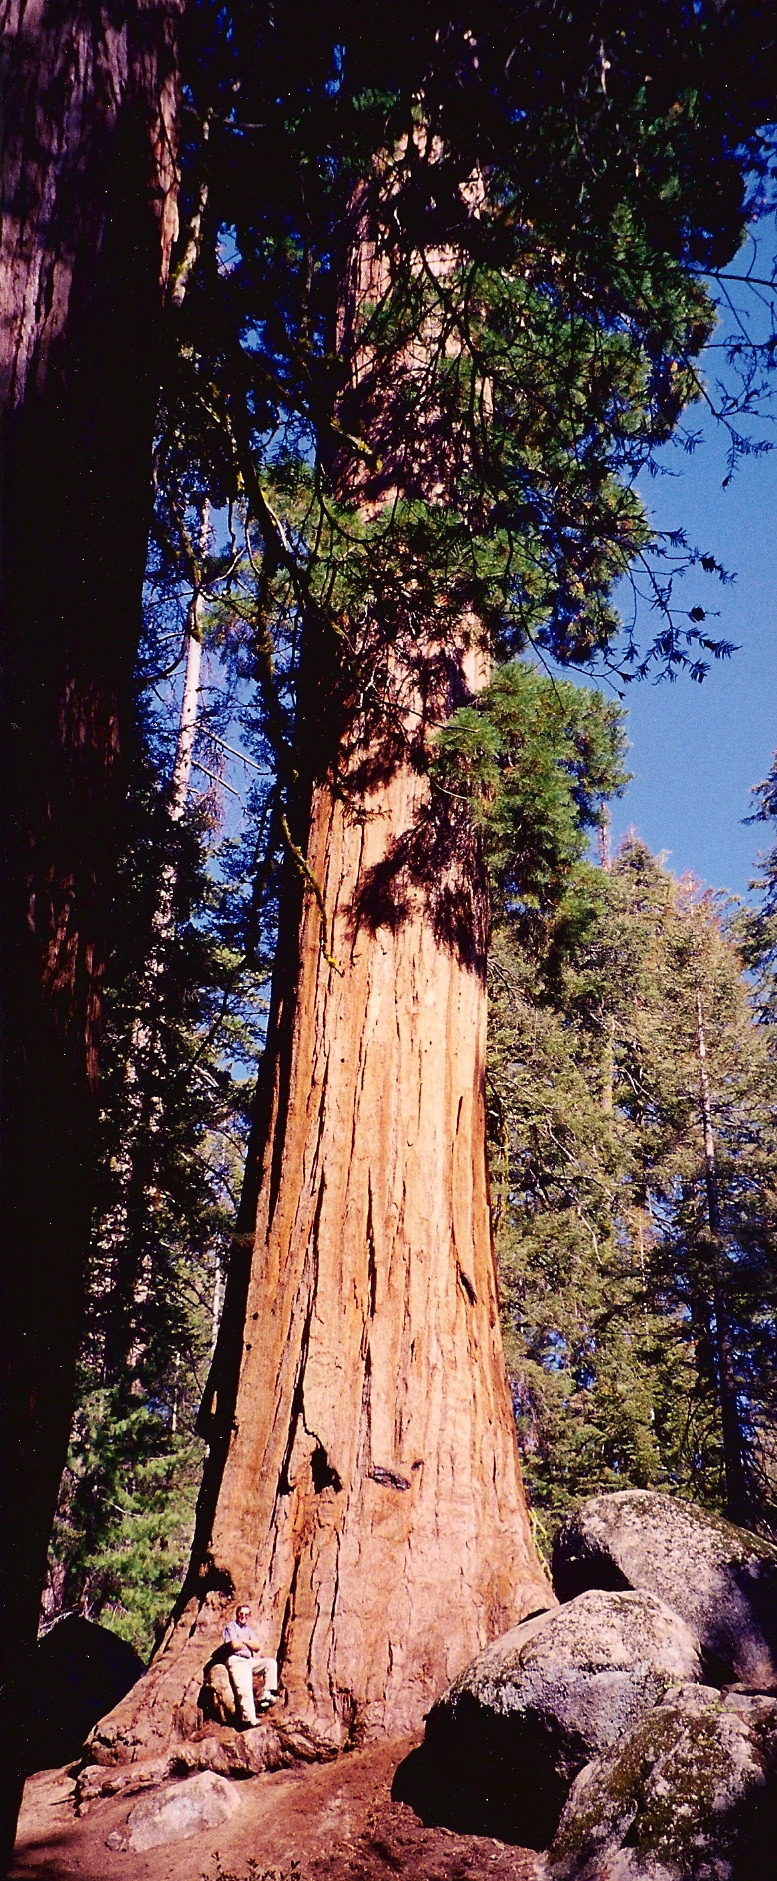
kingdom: Plantae
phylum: Tracheophyta
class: Pinopsida
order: Pinales
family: Cupressaceae
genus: Sequoiadendron
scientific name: Sequoiadendron giganteum
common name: Wellingtonia
